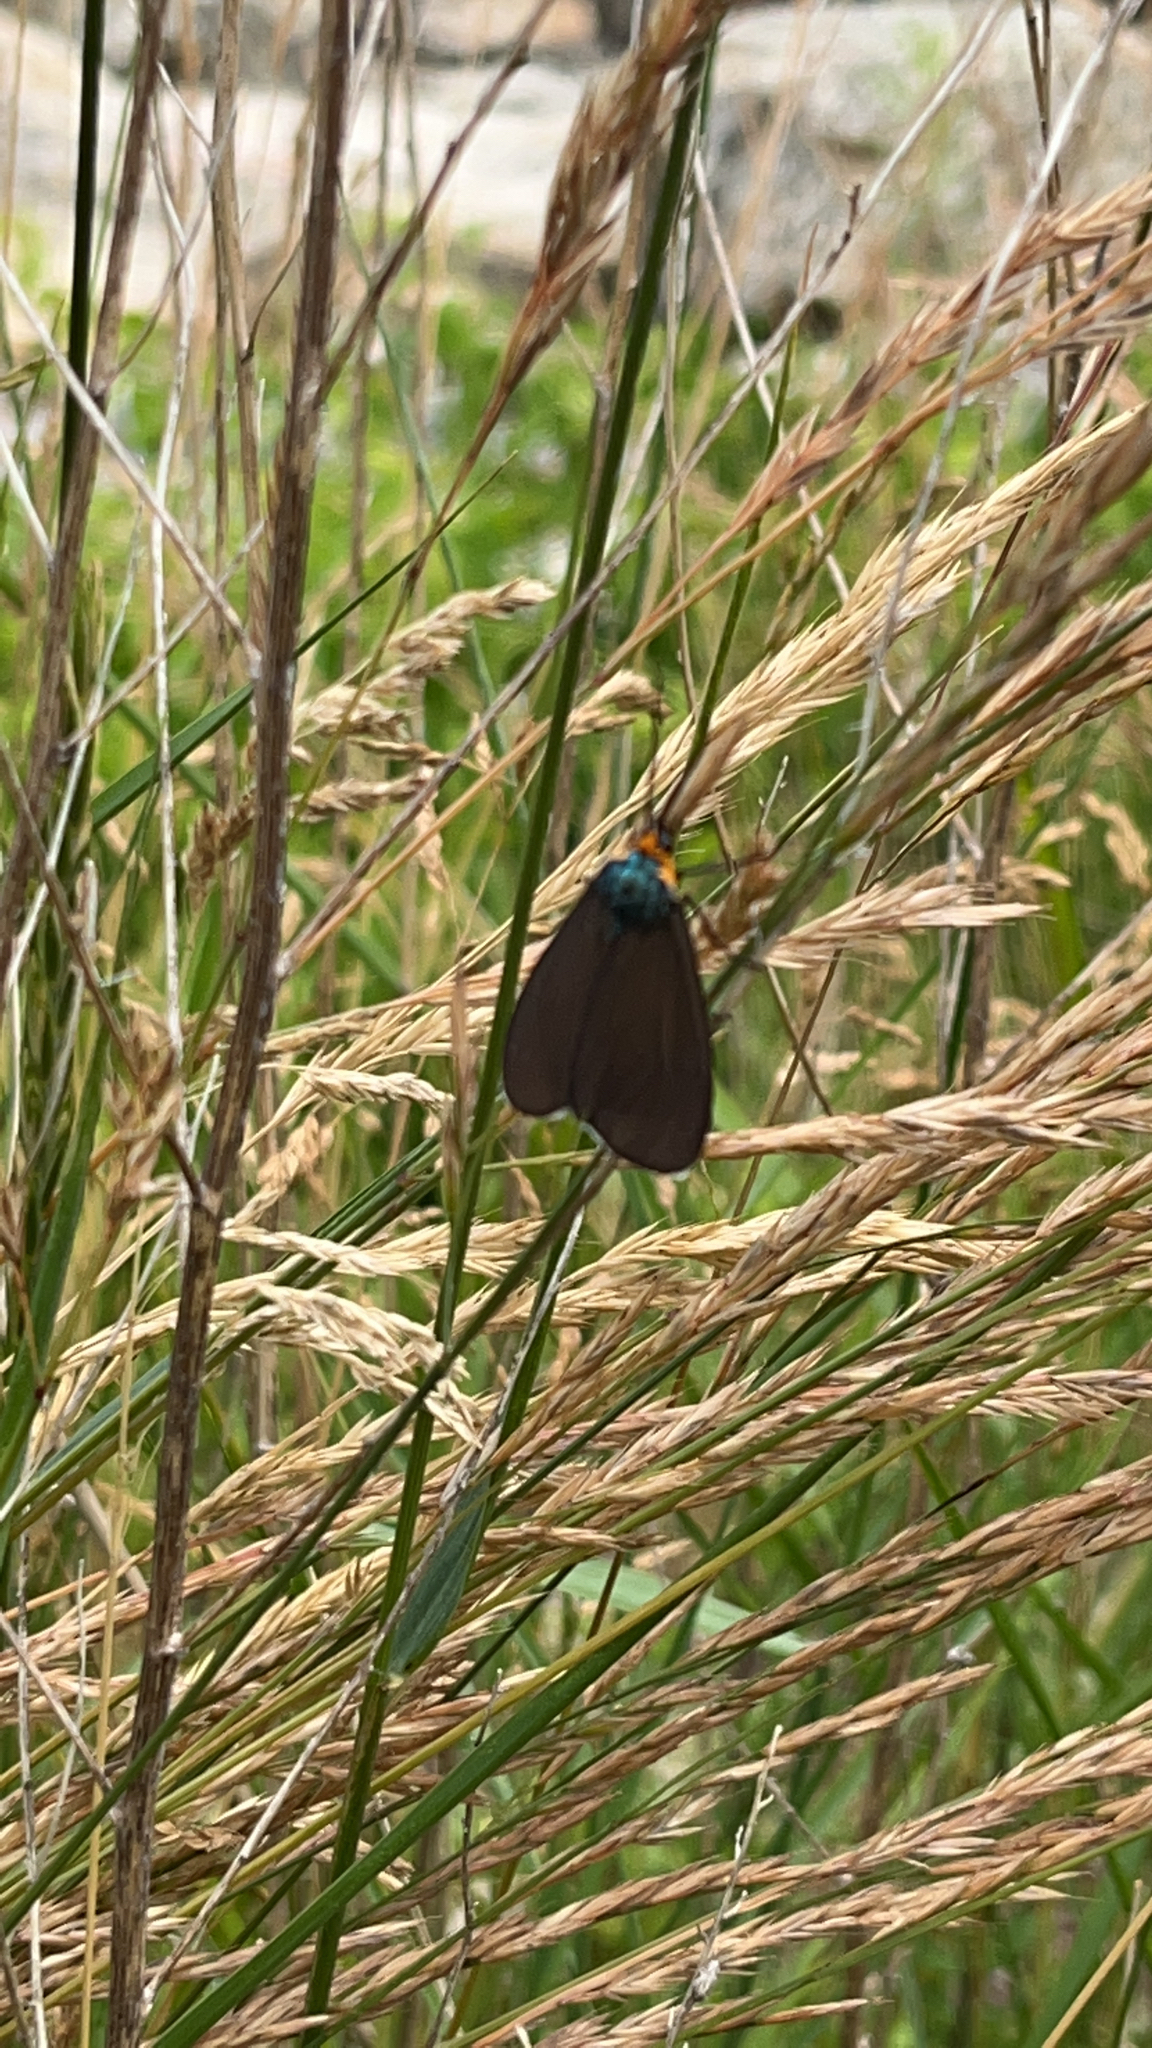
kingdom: Animalia
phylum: Arthropoda
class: Insecta
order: Lepidoptera
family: Erebidae
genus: Ctenucha
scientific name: Ctenucha virginica
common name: Virginia ctenucha moth
